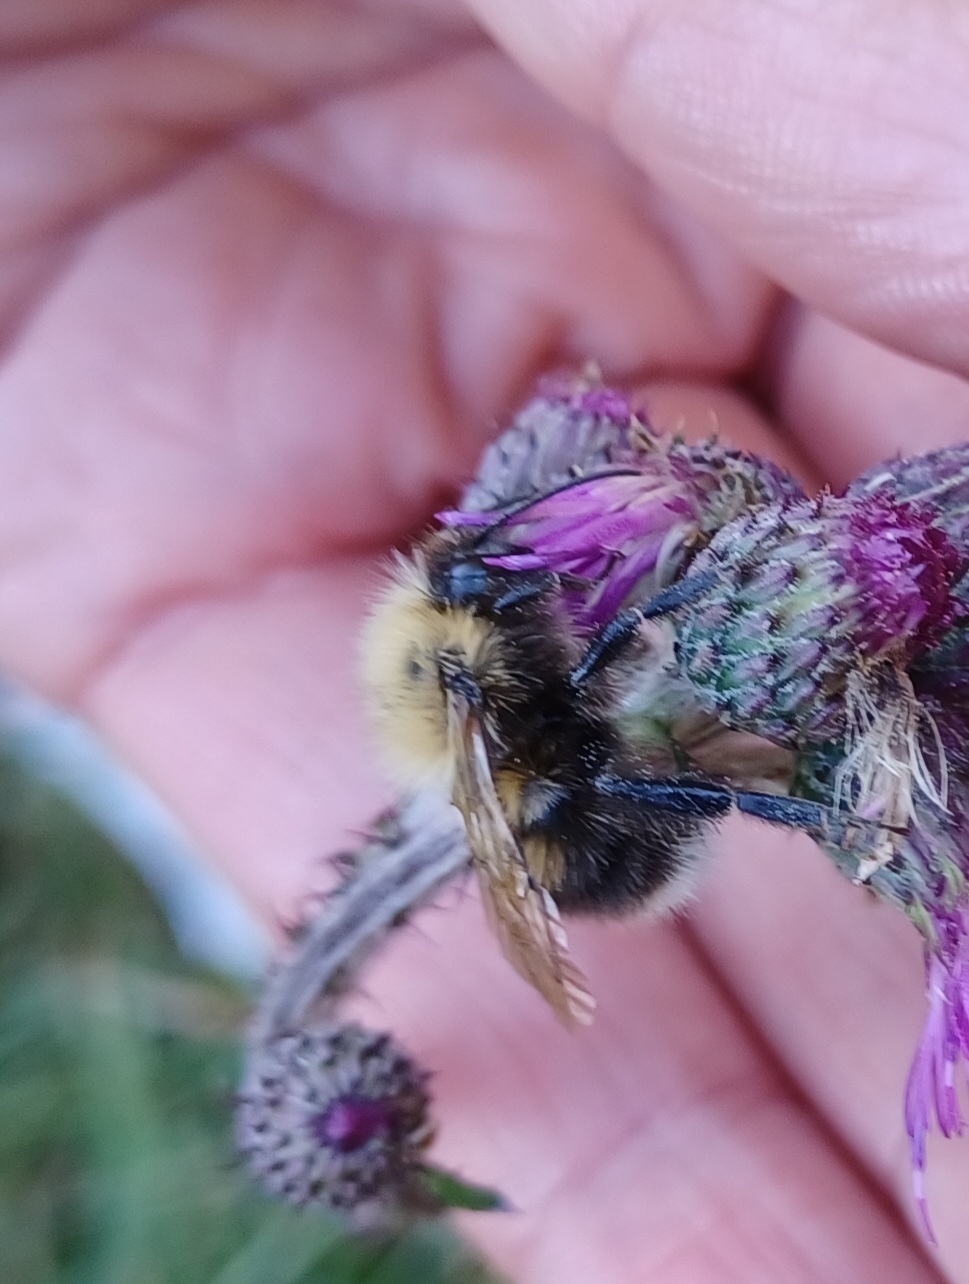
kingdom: Animalia
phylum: Arthropoda
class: Insecta
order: Hymenoptera
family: Apidae
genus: Bombus
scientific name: Bombus hypnorum
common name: New garden bumblebee
